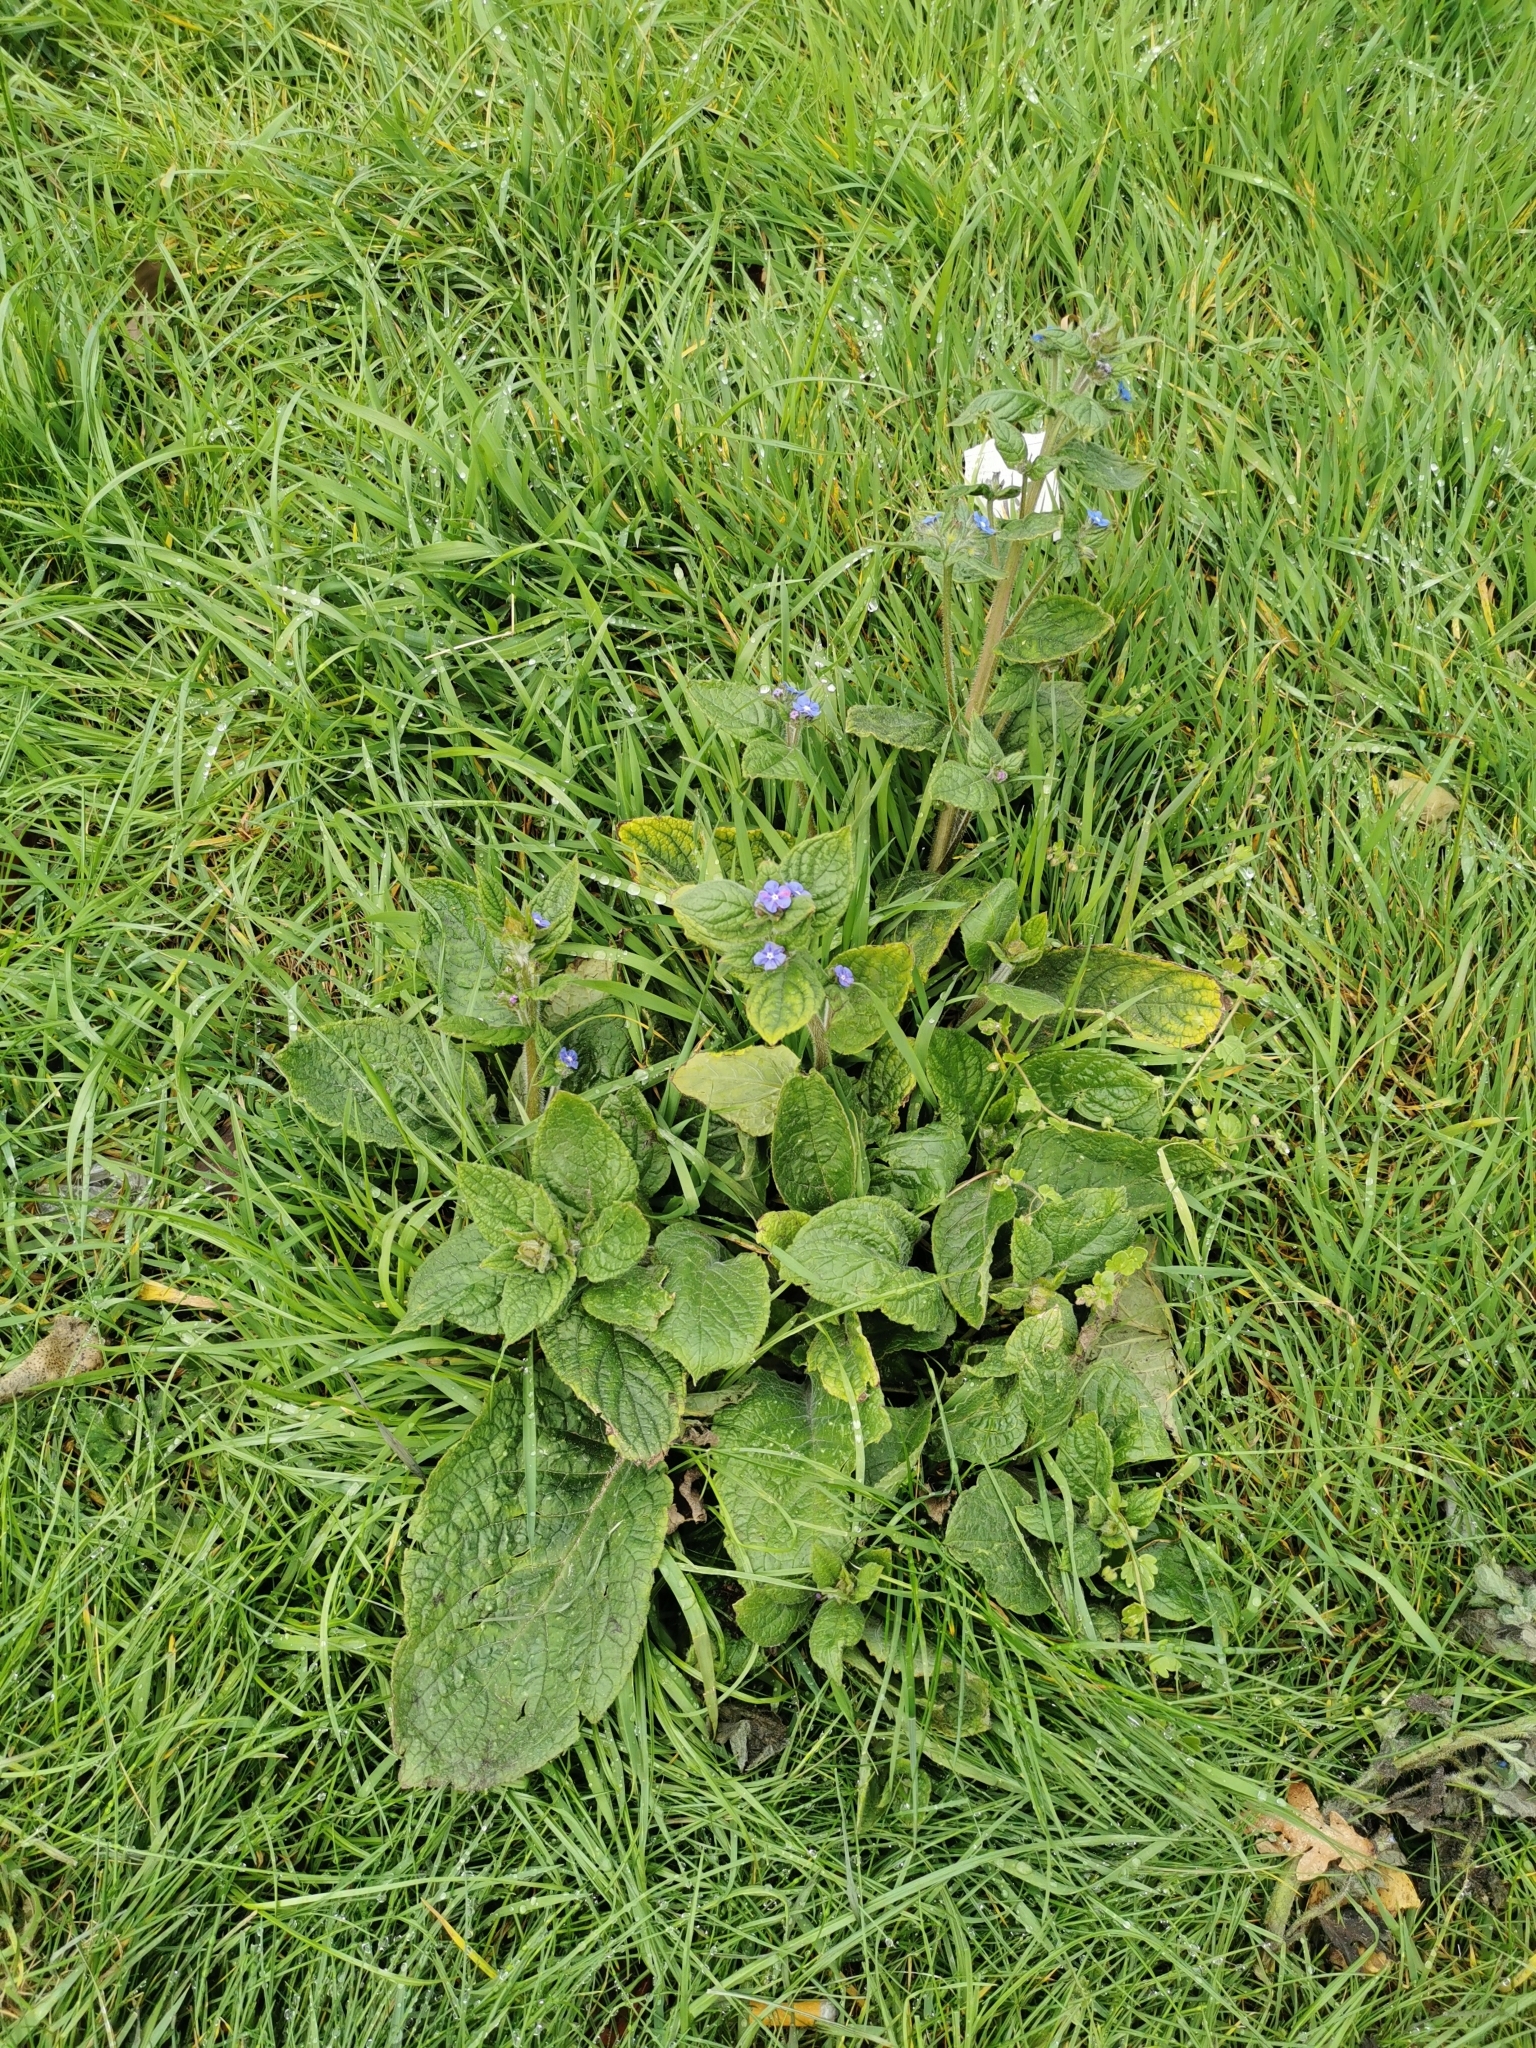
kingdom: Plantae
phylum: Tracheophyta
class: Magnoliopsida
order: Boraginales
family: Boraginaceae
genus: Pentaglottis
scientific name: Pentaglottis sempervirens
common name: Green alkanet
